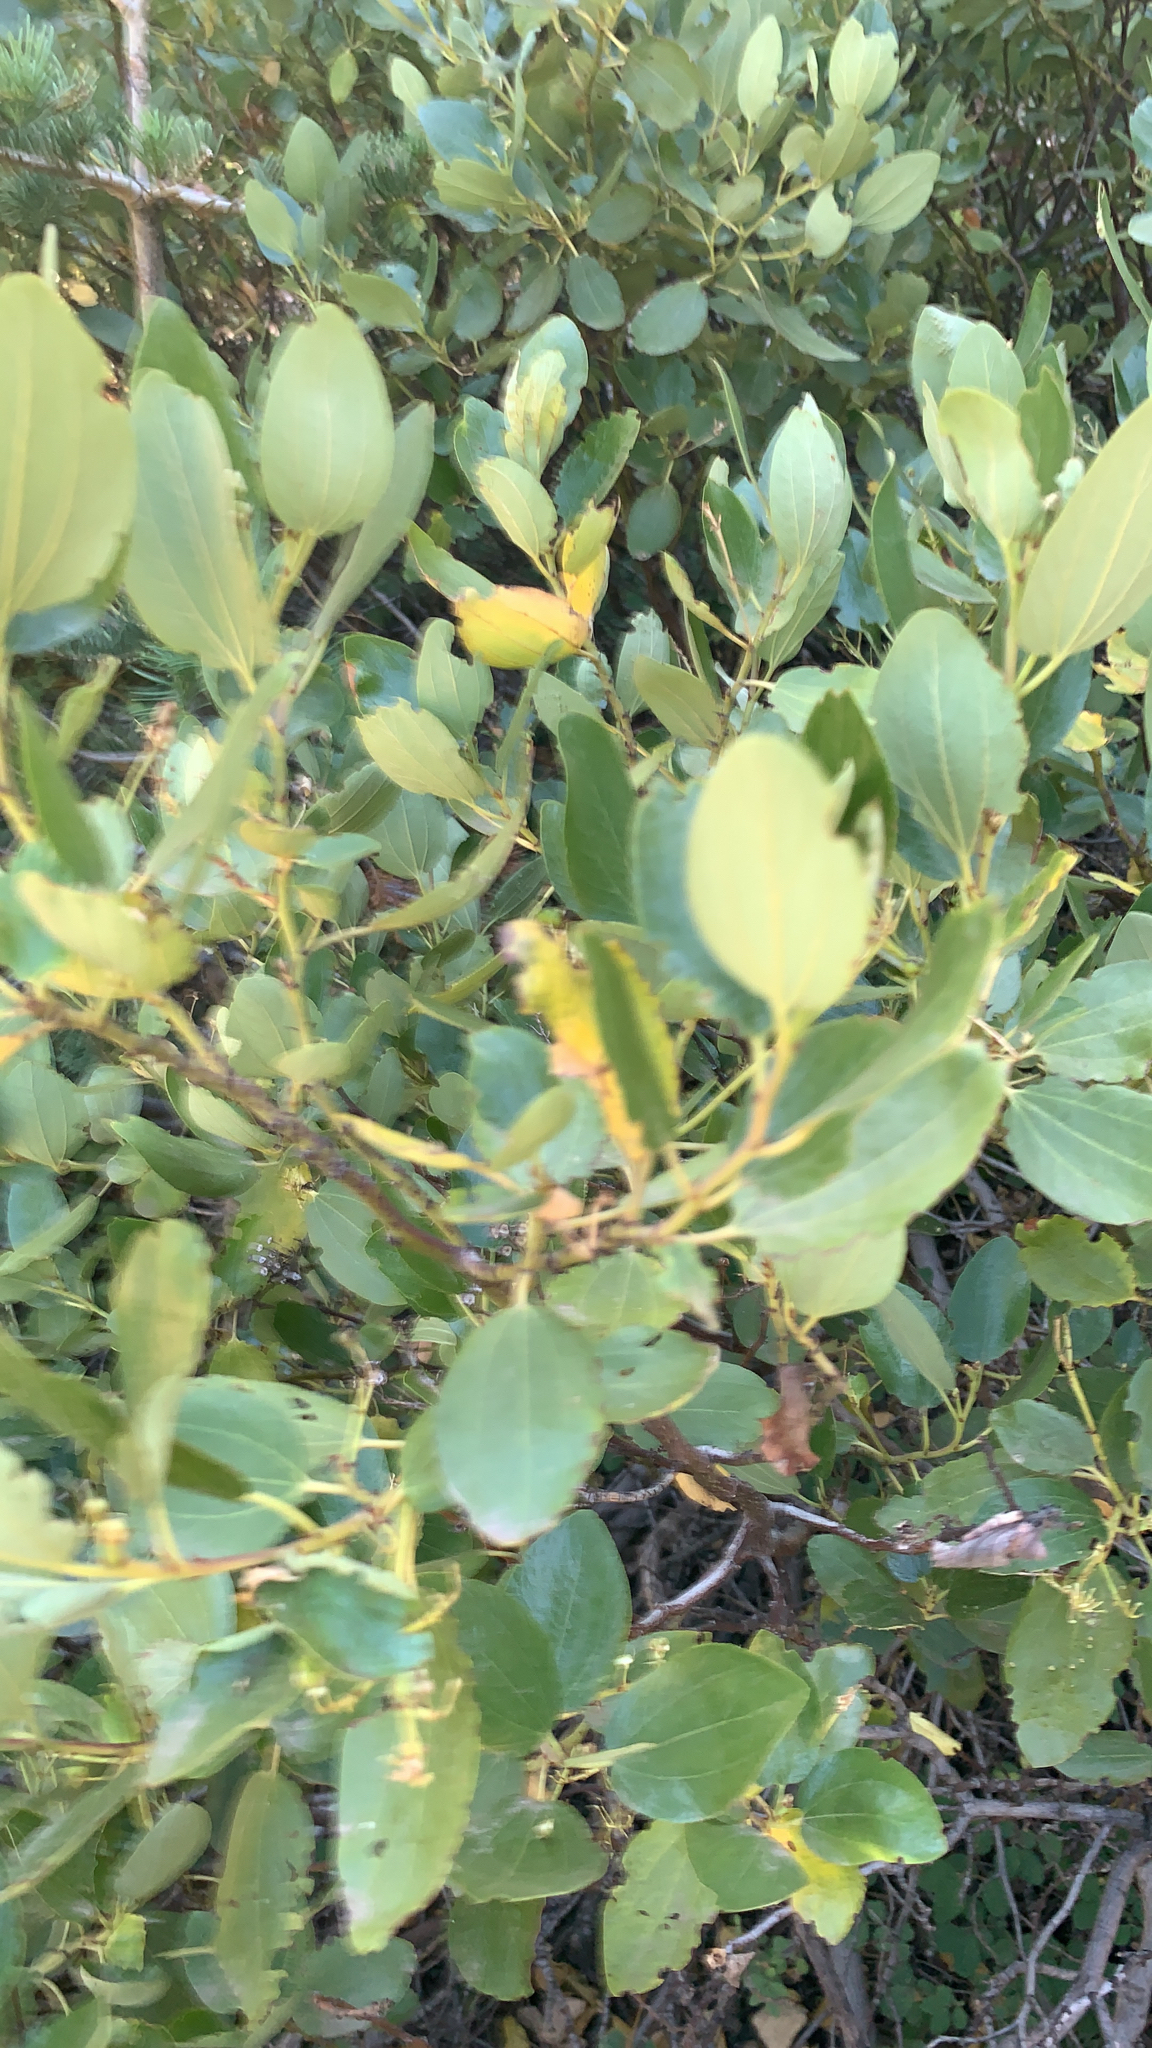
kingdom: Plantae
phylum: Tracheophyta
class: Magnoliopsida
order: Rosales
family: Rhamnaceae
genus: Ceanothus
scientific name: Ceanothus velutinus
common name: Snowbrush
